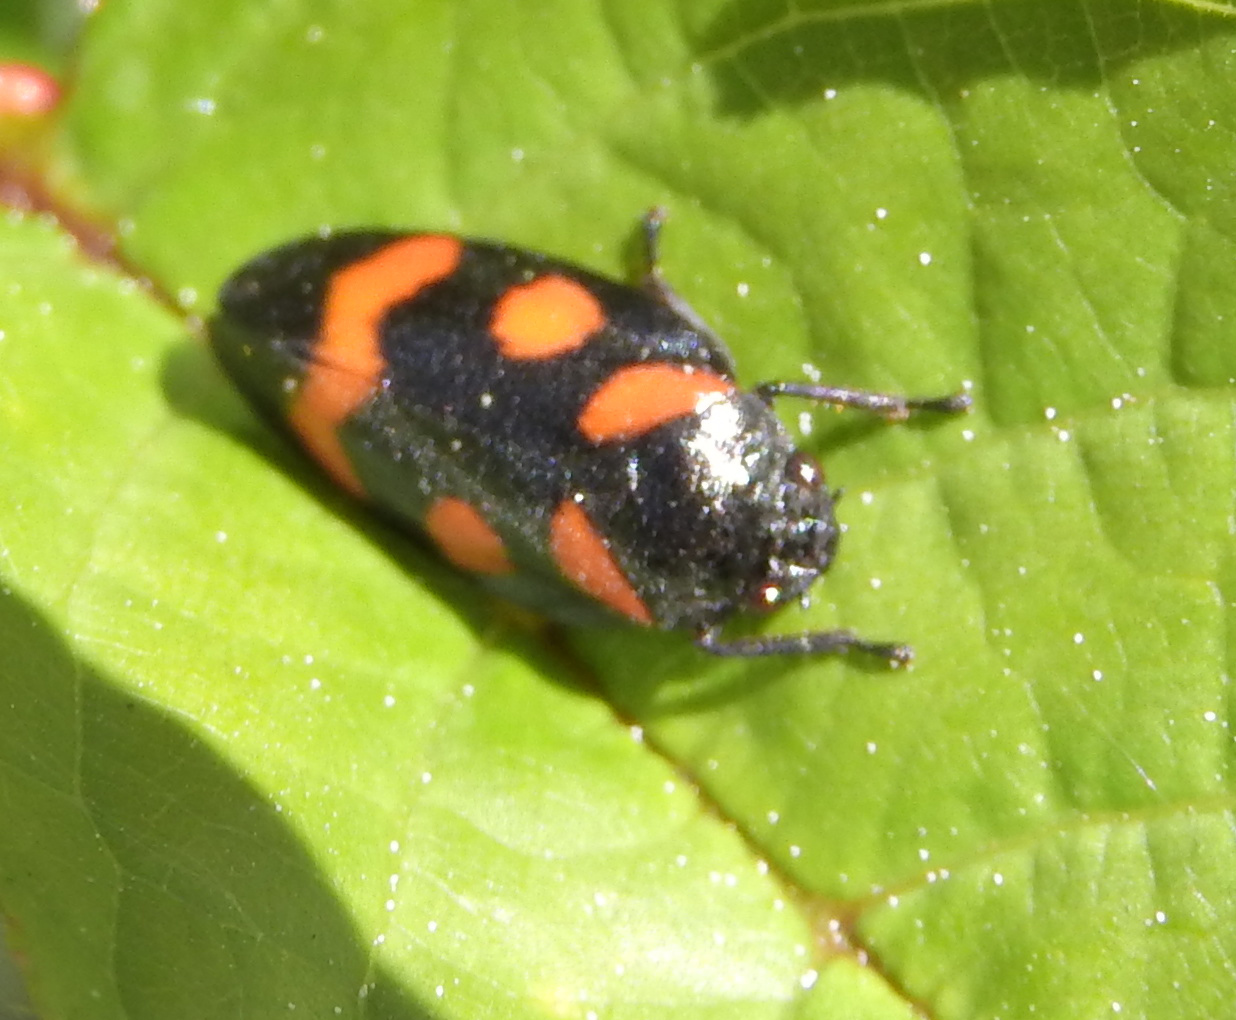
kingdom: Animalia
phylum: Arthropoda
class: Insecta
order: Hemiptera
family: Cercopidae
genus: Cercopis
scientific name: Cercopis sanguinolenta
